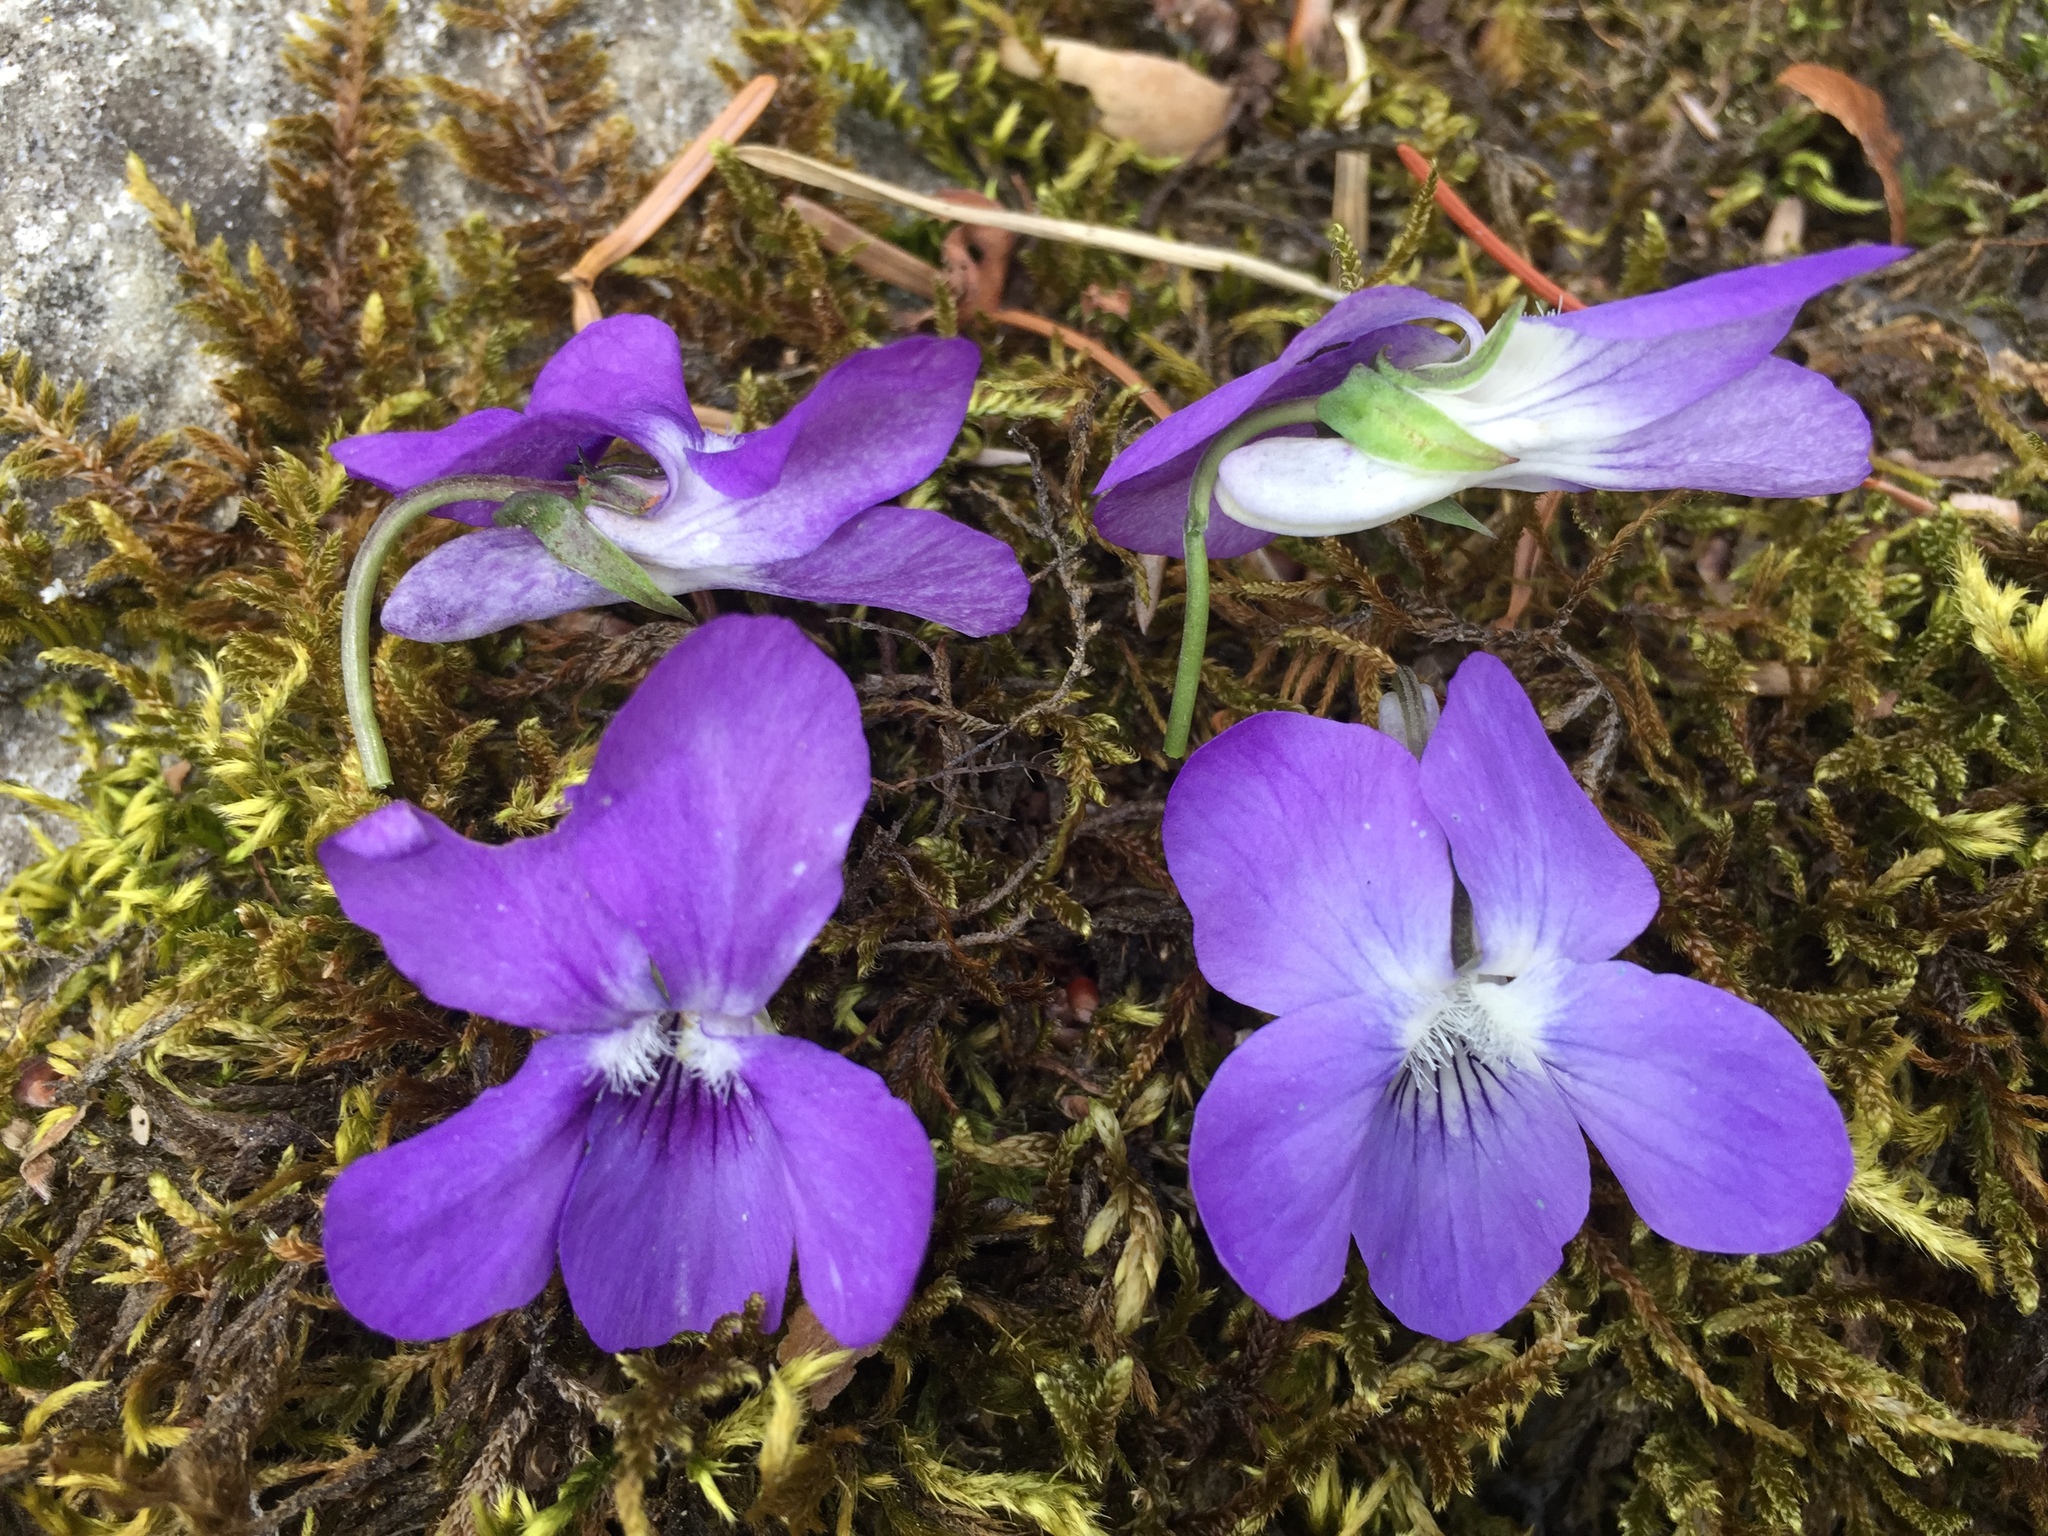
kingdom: Plantae
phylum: Tracheophyta
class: Magnoliopsida
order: Malpighiales
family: Violaceae
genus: Viola
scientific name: Viola riviniana
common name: Common dog-violet
